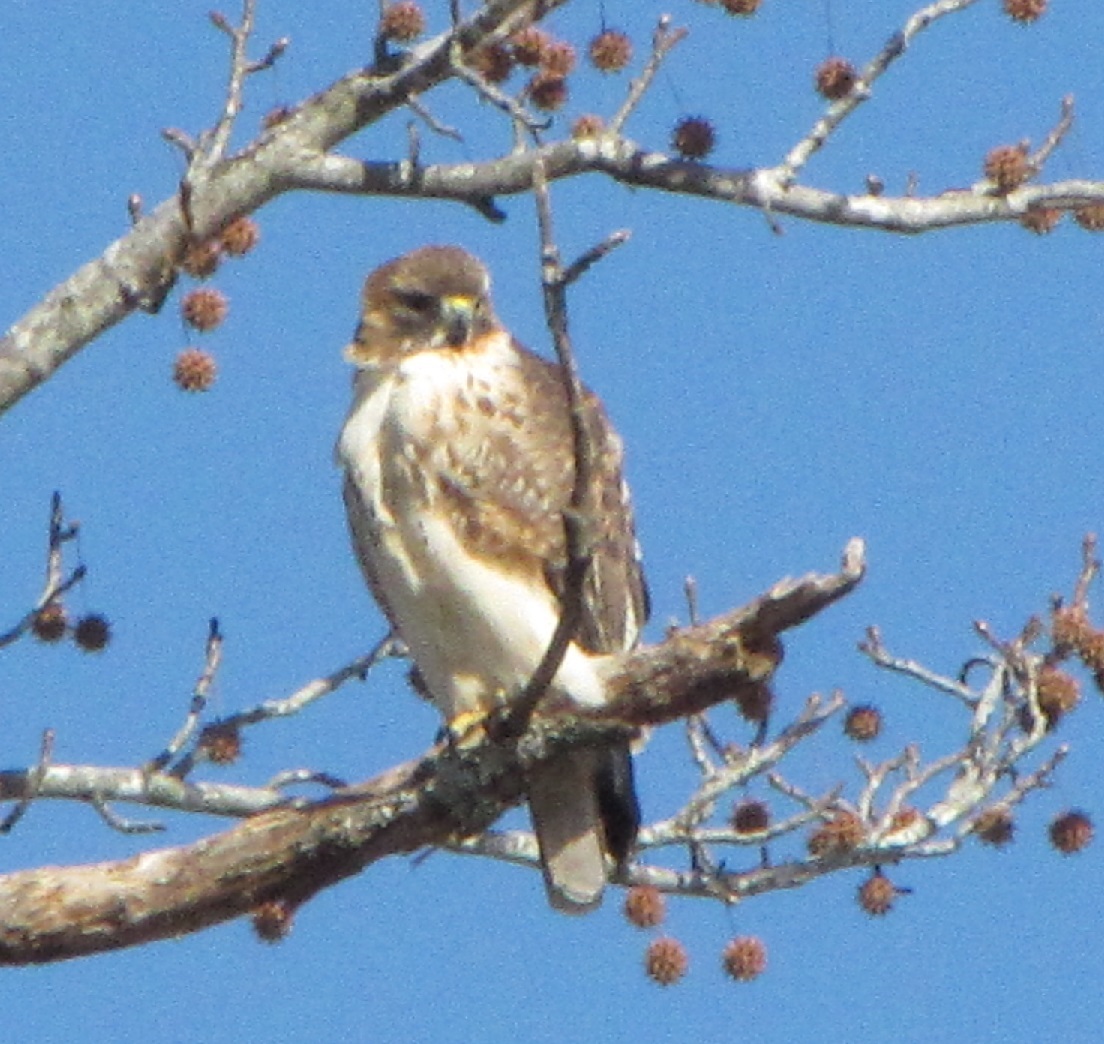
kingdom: Animalia
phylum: Chordata
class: Aves
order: Accipitriformes
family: Accipitridae
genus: Buteo
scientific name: Buteo jamaicensis
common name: Red-tailed hawk
